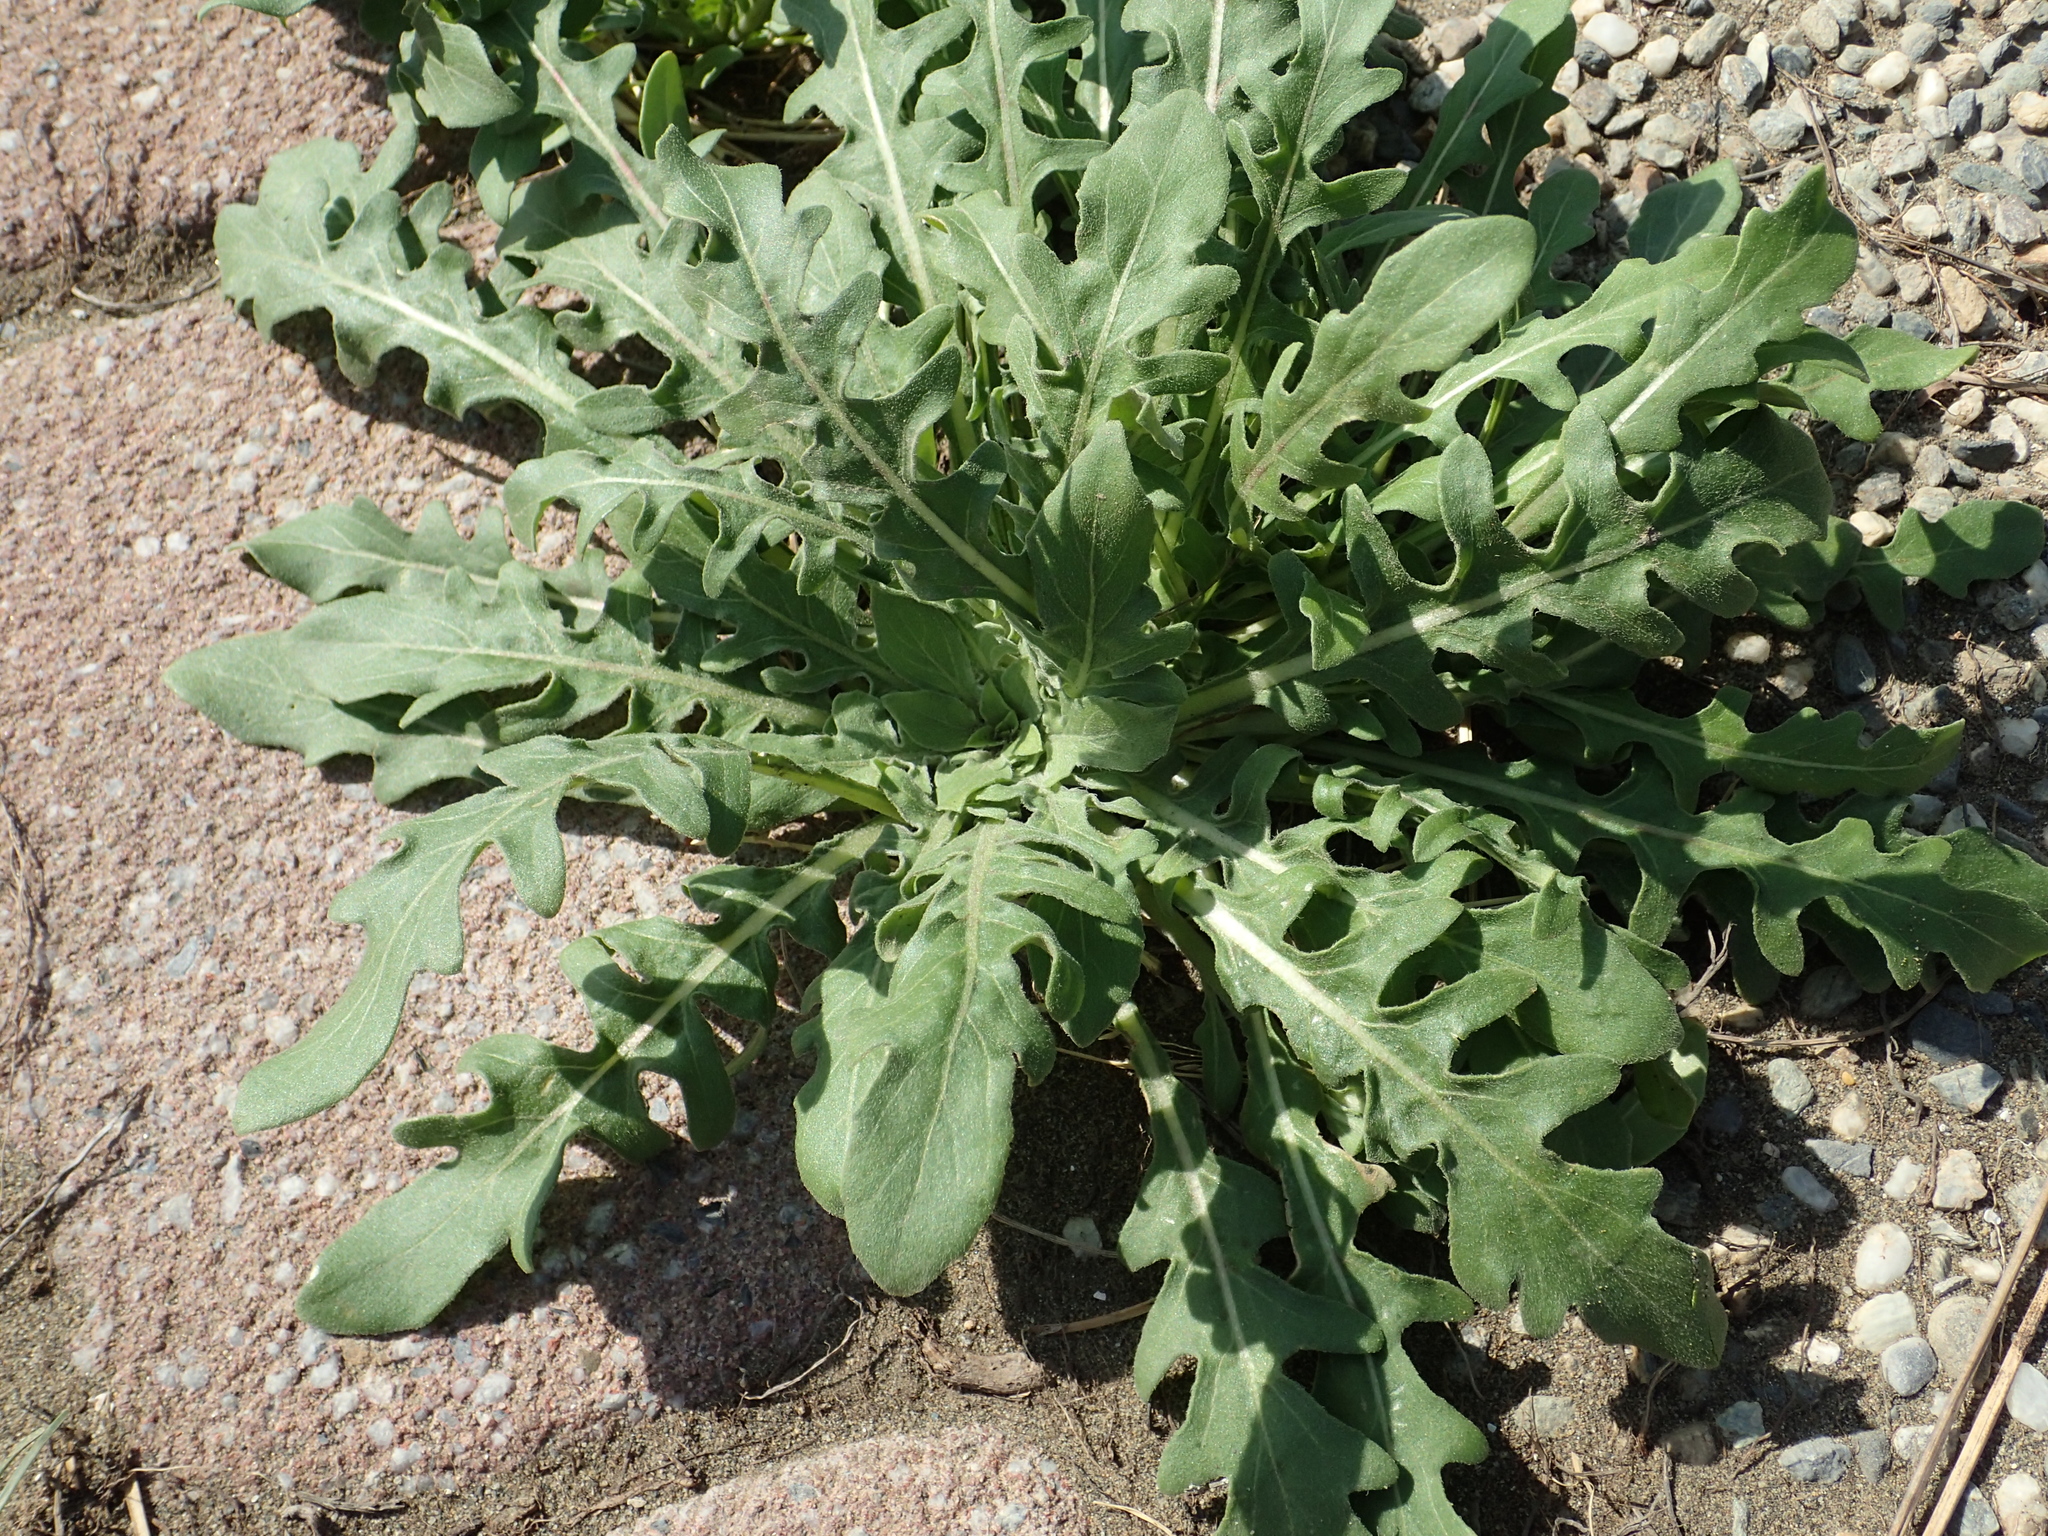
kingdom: Plantae
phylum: Tracheophyta
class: Magnoliopsida
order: Myrtales
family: Onagraceae
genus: Oenothera
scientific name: Oenothera laciniata
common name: Cut-leaved evening-primrose
